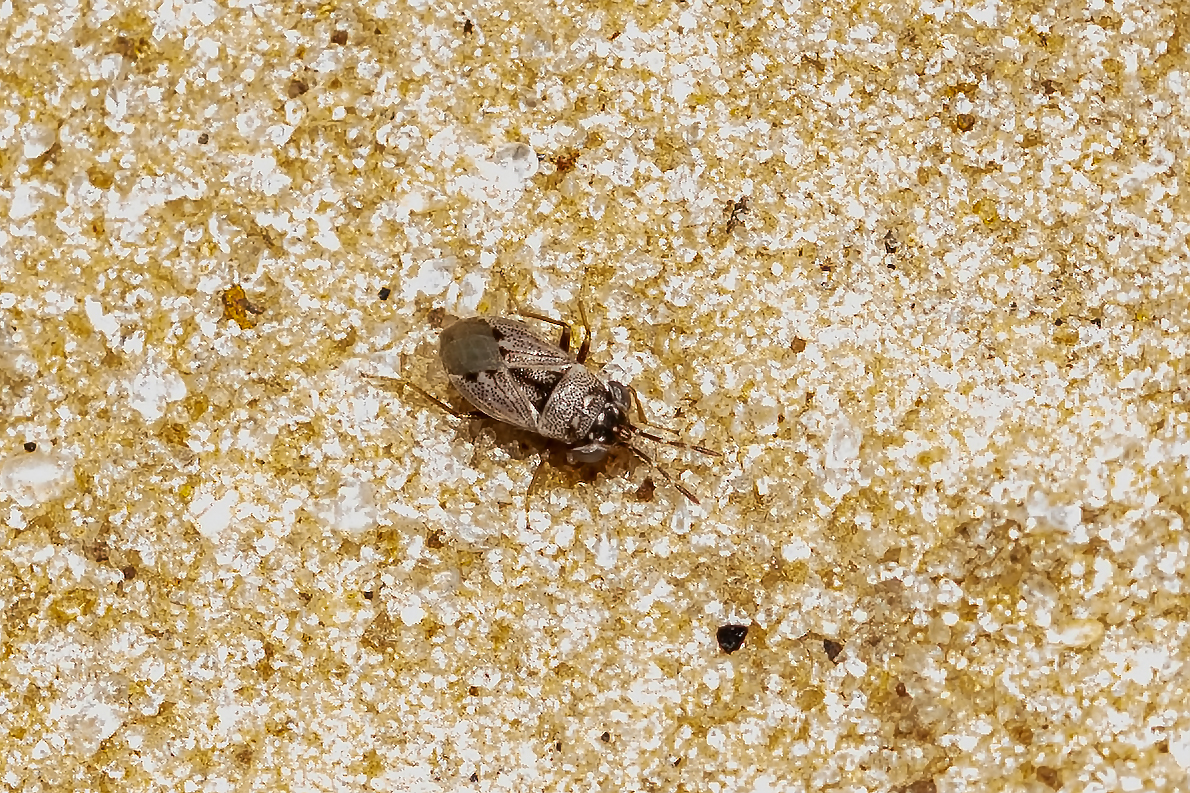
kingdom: Animalia
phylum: Arthropoda
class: Insecta
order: Hemiptera
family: Geocoridae
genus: Geocoris
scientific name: Geocoris floridanus
